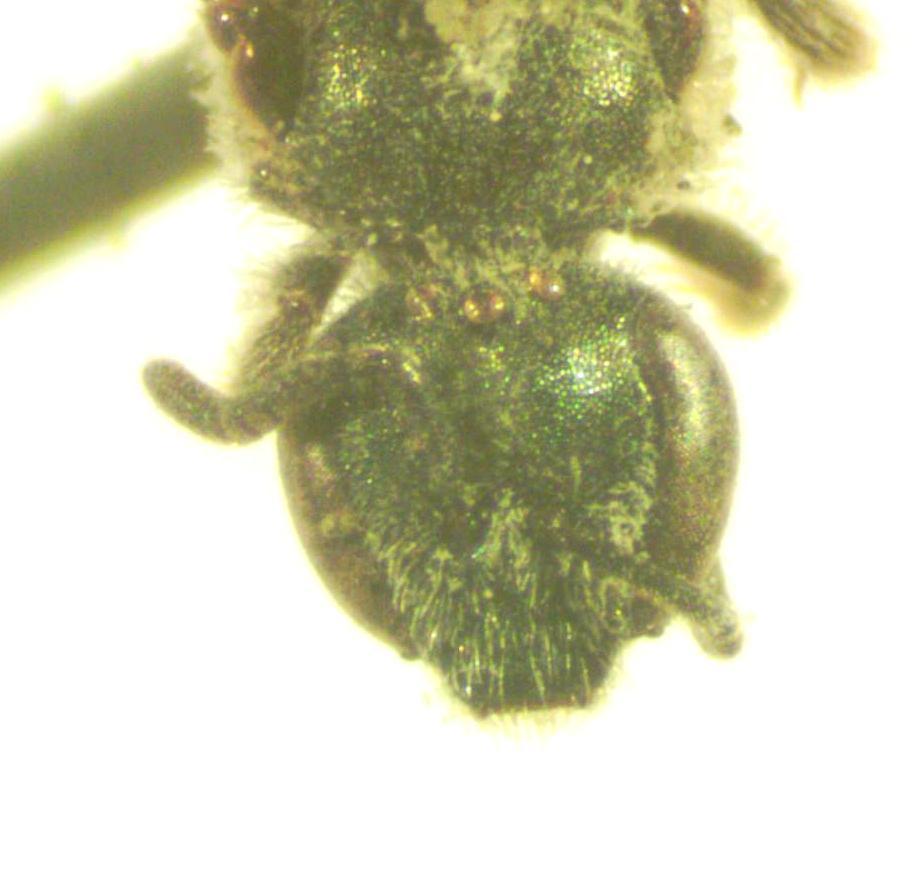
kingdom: Animalia
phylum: Arthropoda
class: Insecta
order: Hymenoptera
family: Halictidae
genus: Dialictus
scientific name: Dialictus
